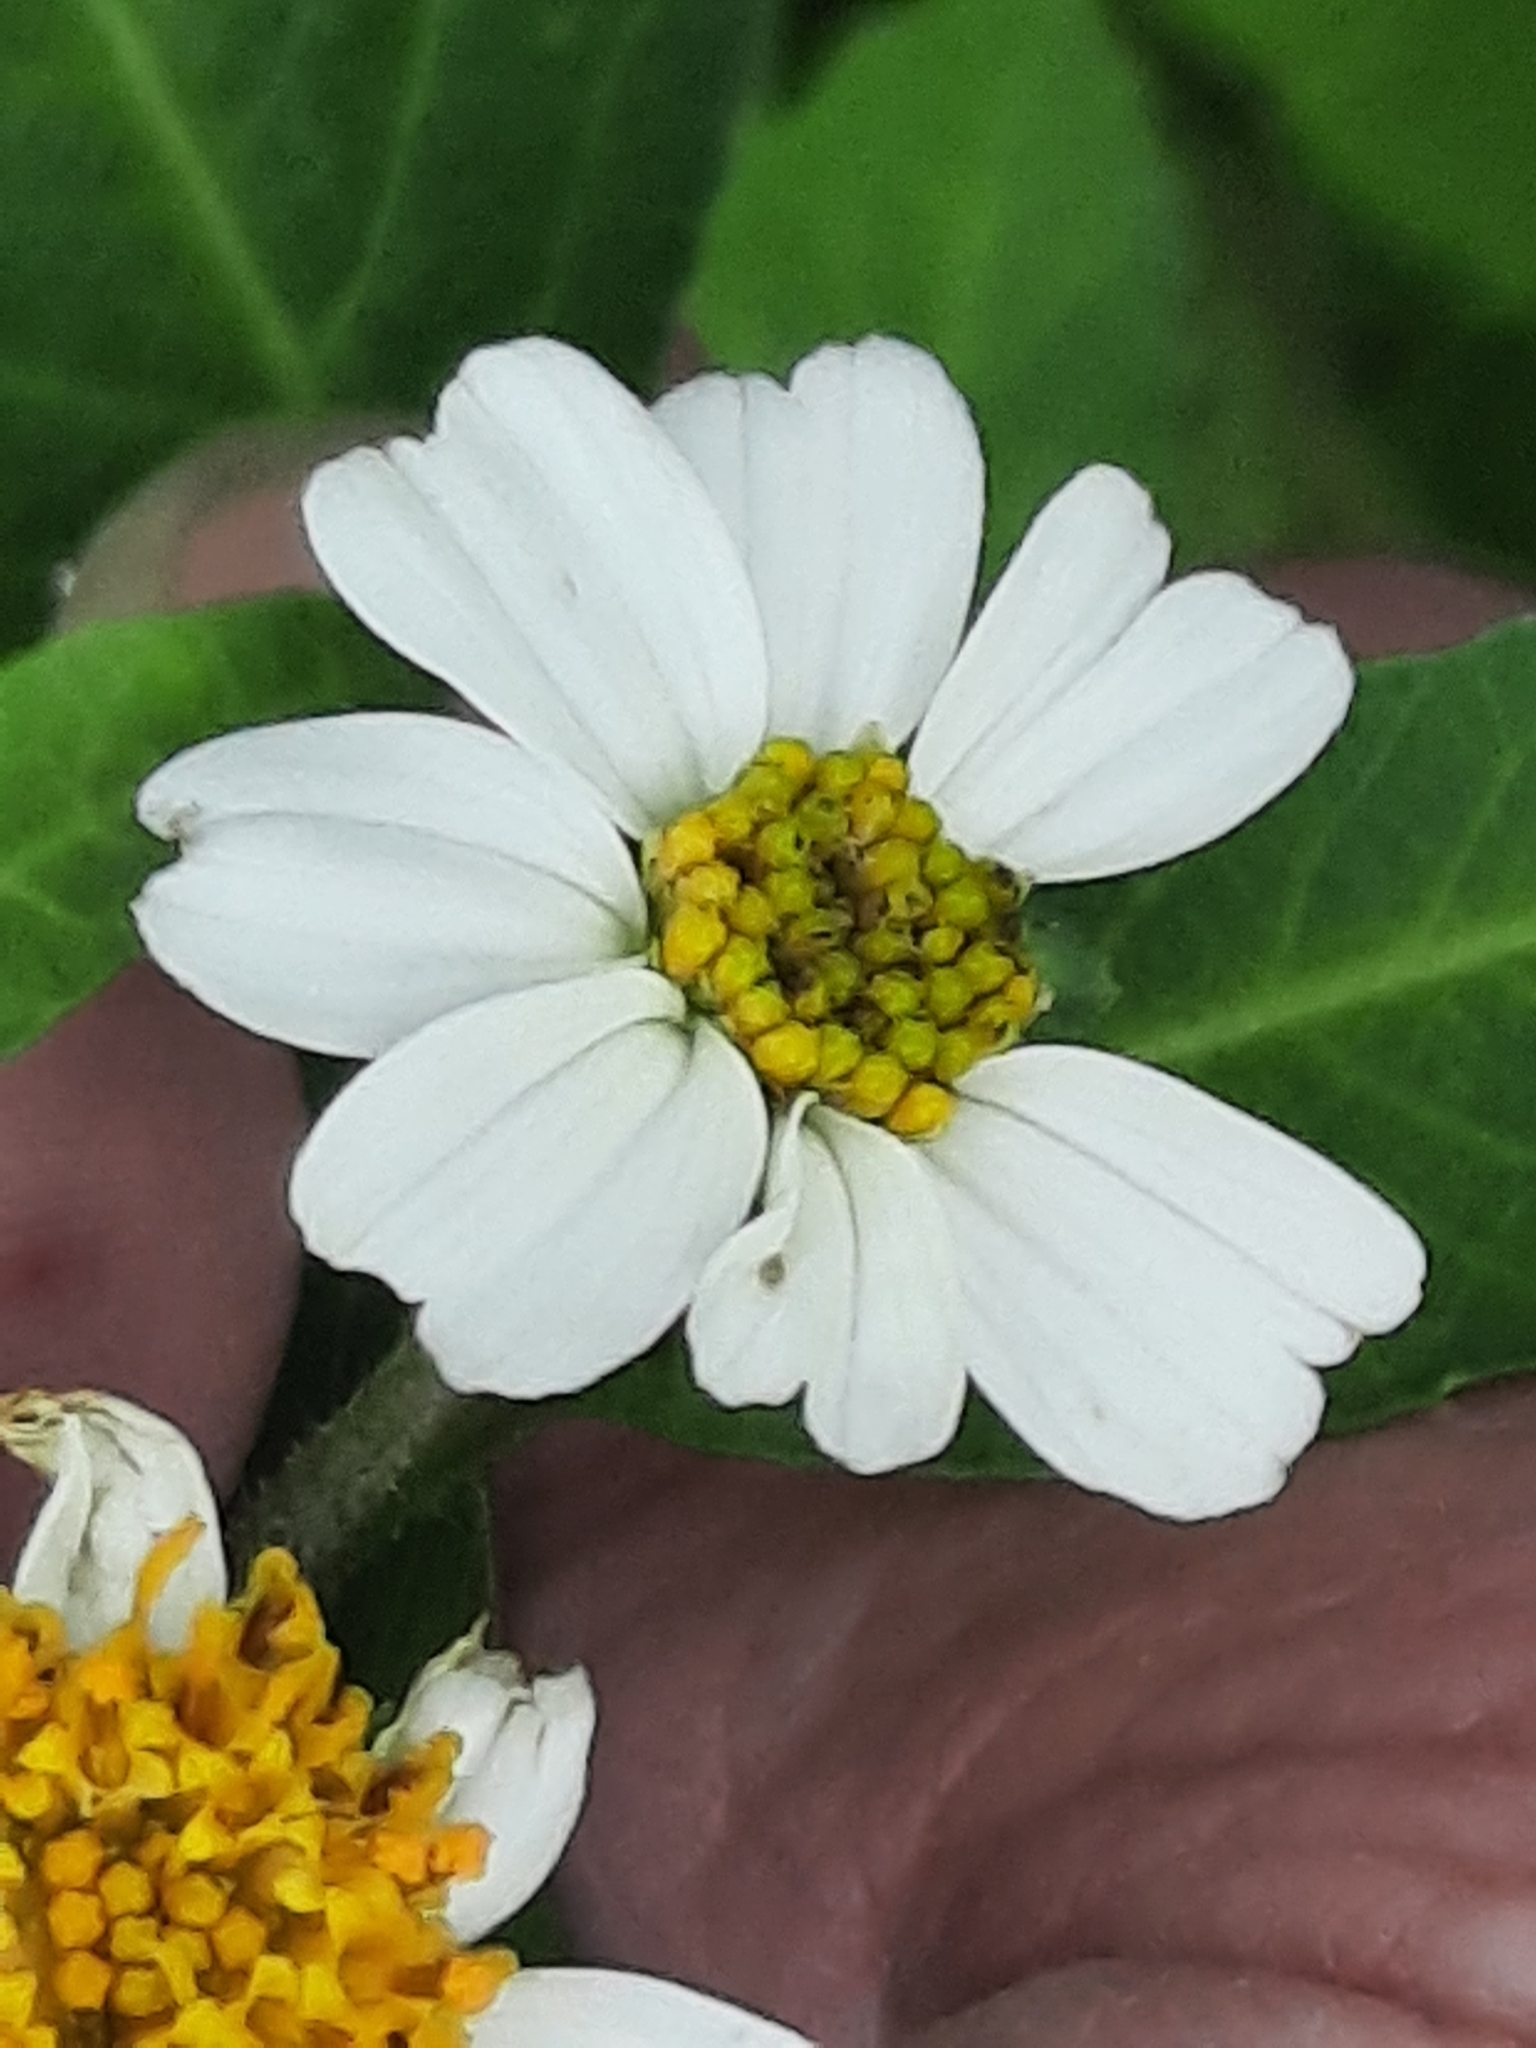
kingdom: Plantae
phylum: Tracheophyta
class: Magnoliopsida
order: Asterales
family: Asteraceae
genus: Bidens
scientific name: Bidens alba
